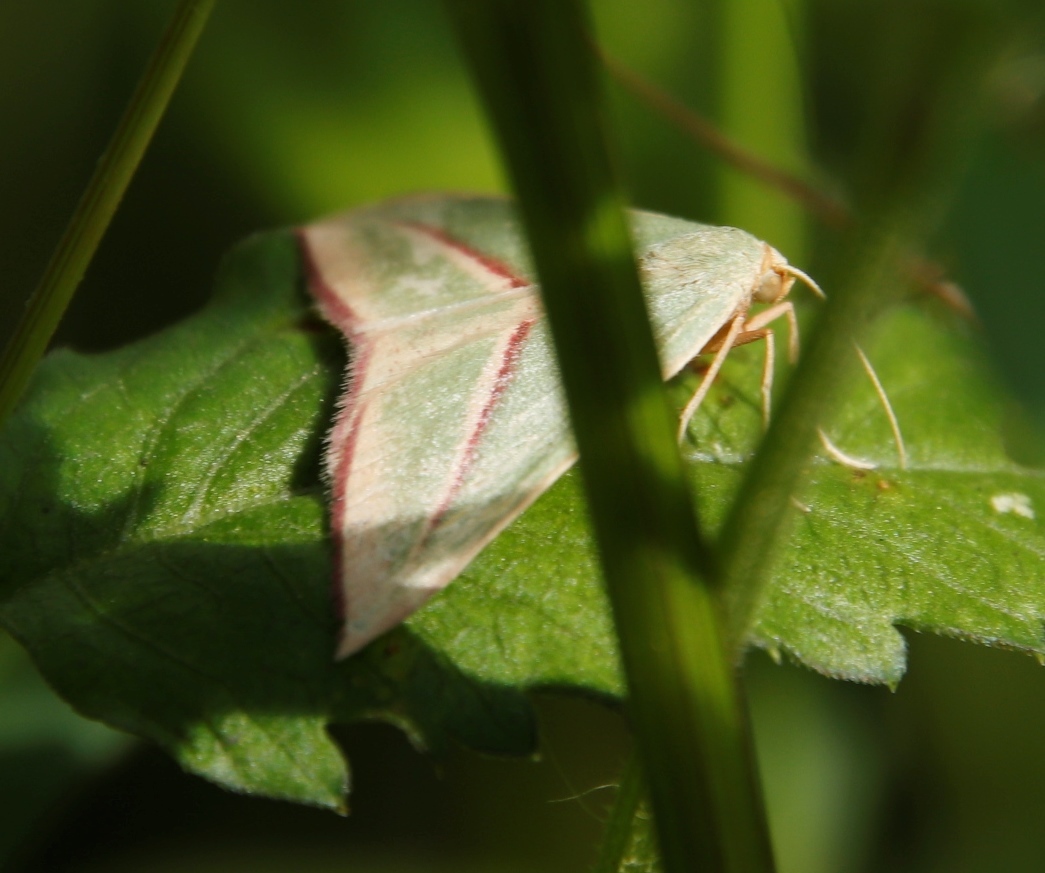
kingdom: Animalia
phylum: Arthropoda
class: Insecta
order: Lepidoptera
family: Geometridae
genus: Chlorerythra
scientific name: Chlorerythra rubriplaga
